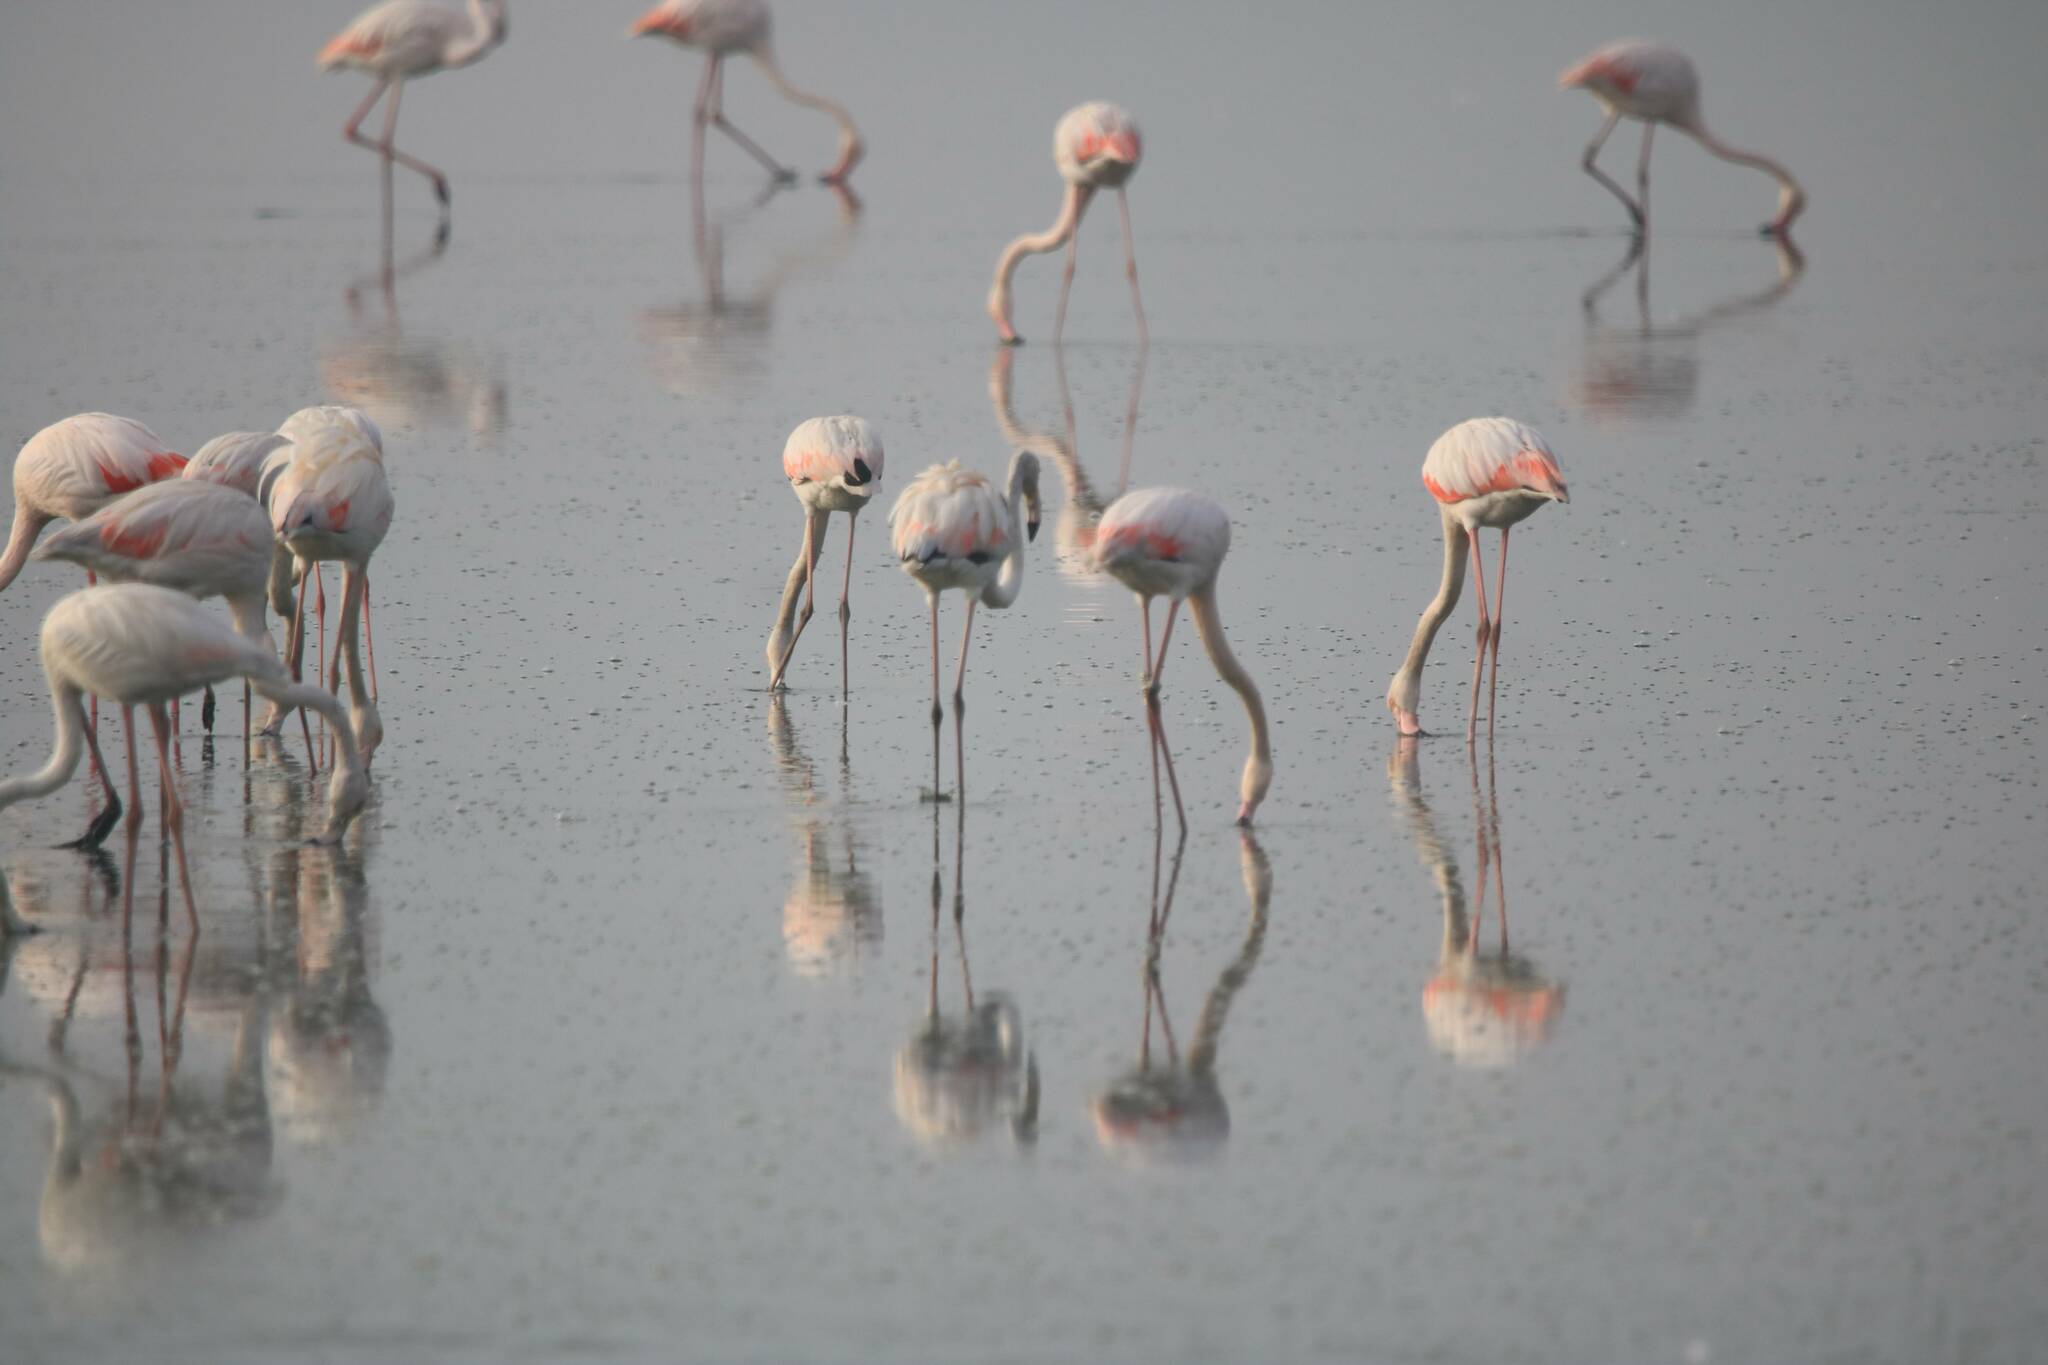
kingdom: Animalia
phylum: Chordata
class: Aves
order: Phoenicopteriformes
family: Phoenicopteridae
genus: Phoenicopterus
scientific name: Phoenicopterus roseus
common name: Greater flamingo
